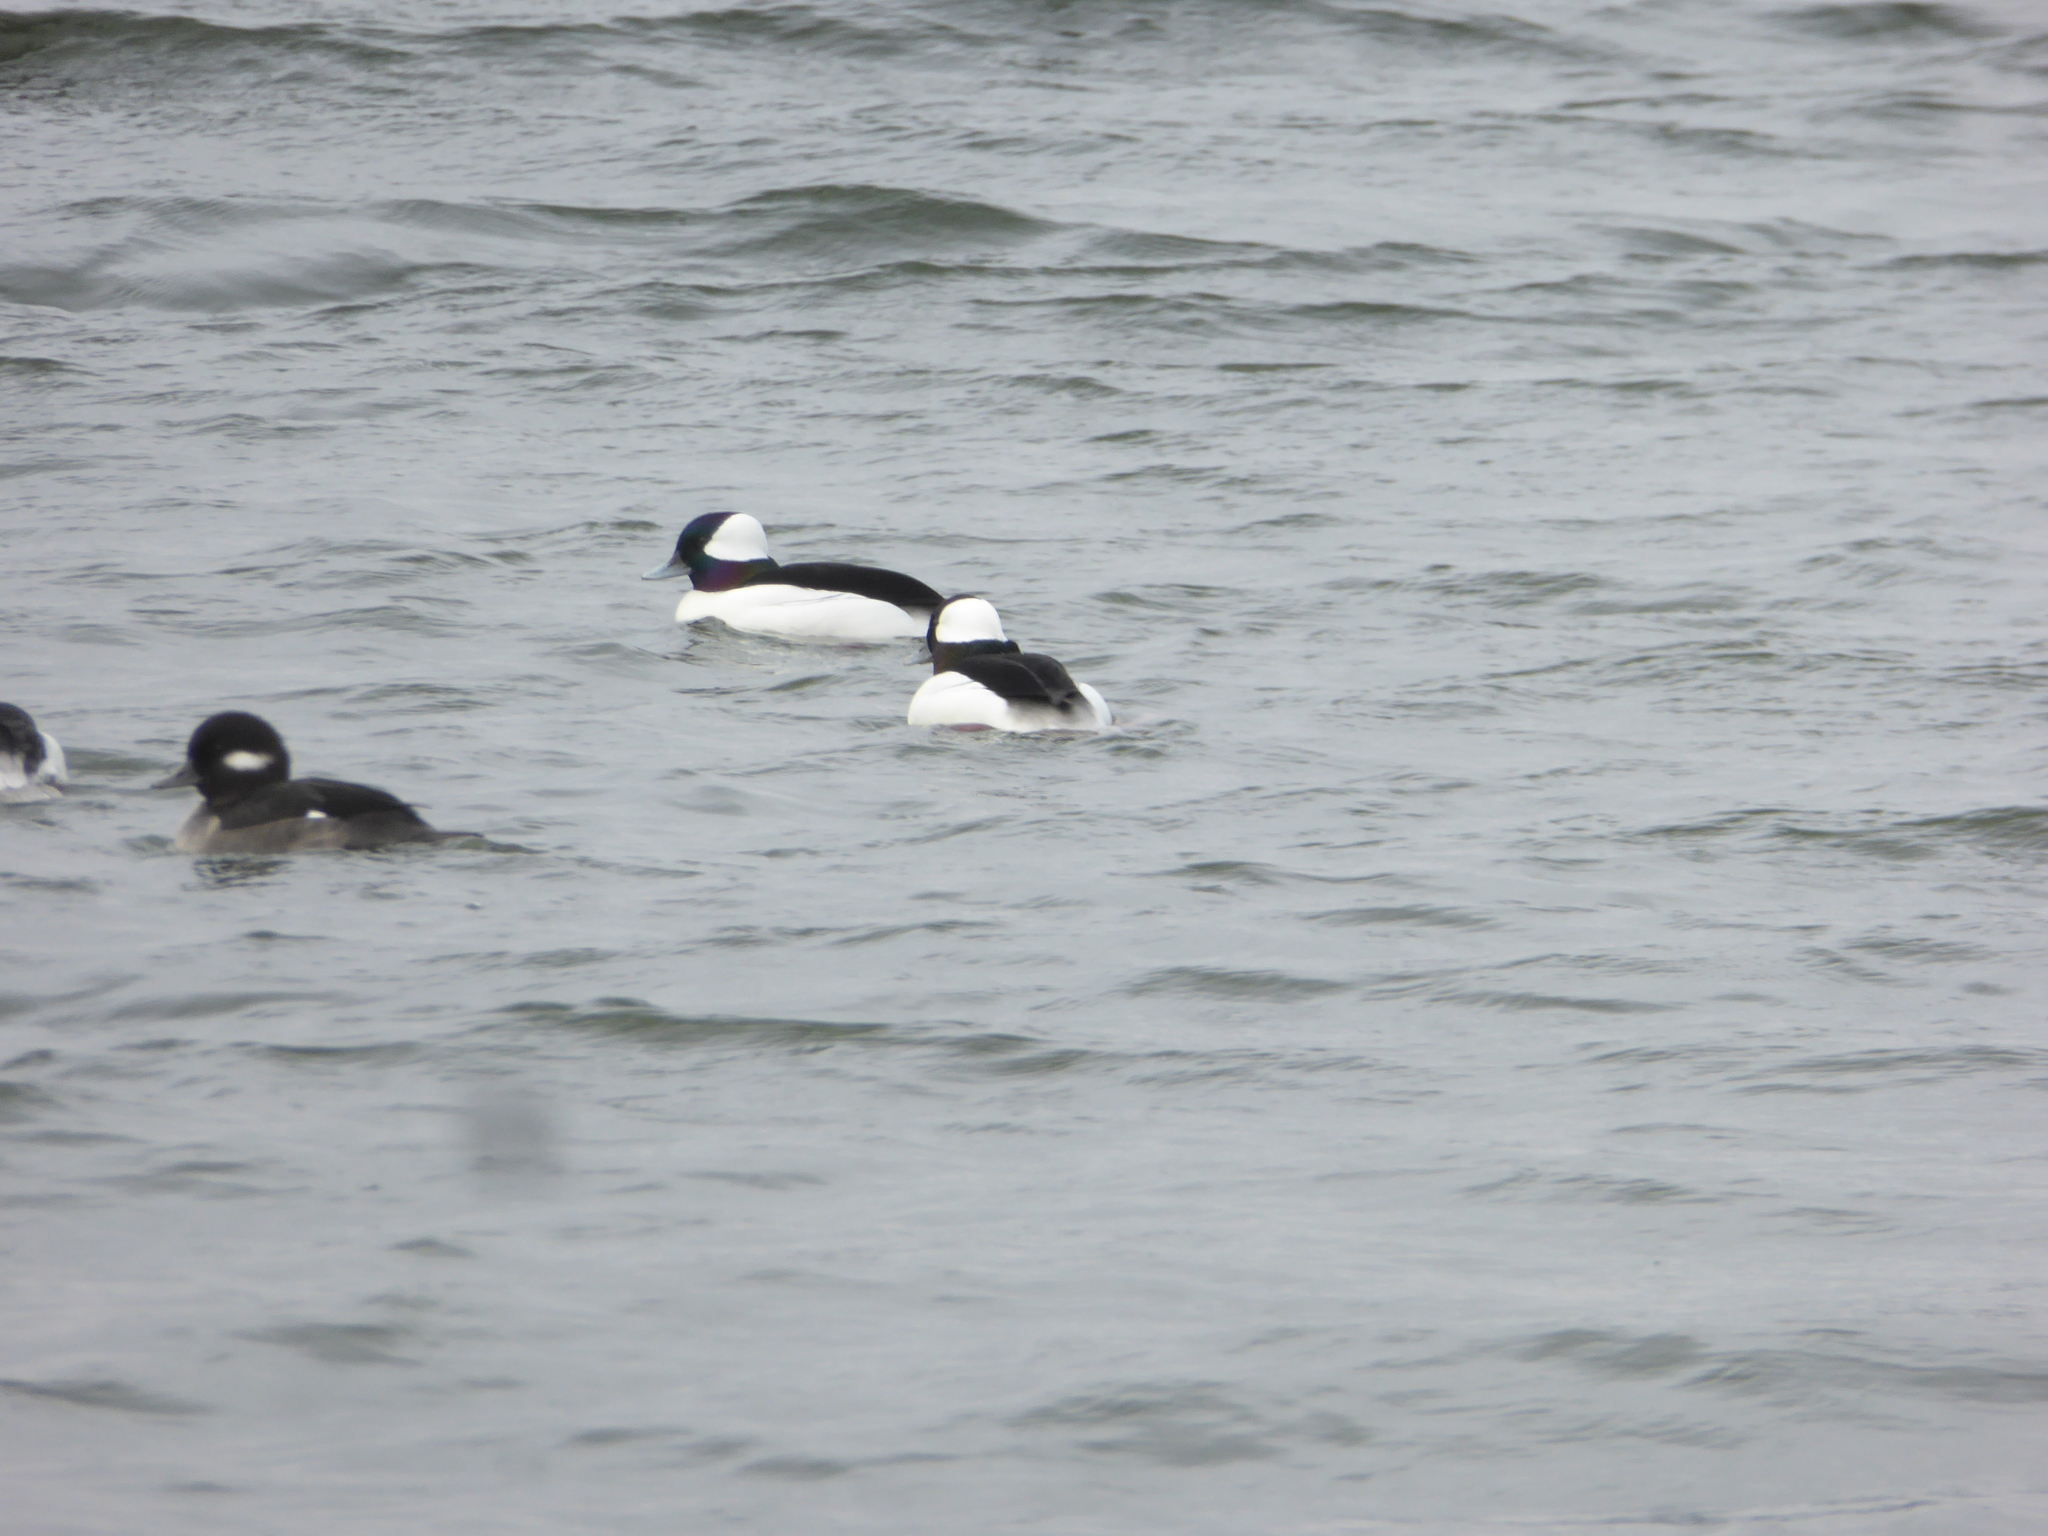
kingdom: Animalia
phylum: Chordata
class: Aves
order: Anseriformes
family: Anatidae
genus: Bucephala
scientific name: Bucephala albeola
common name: Bufflehead
